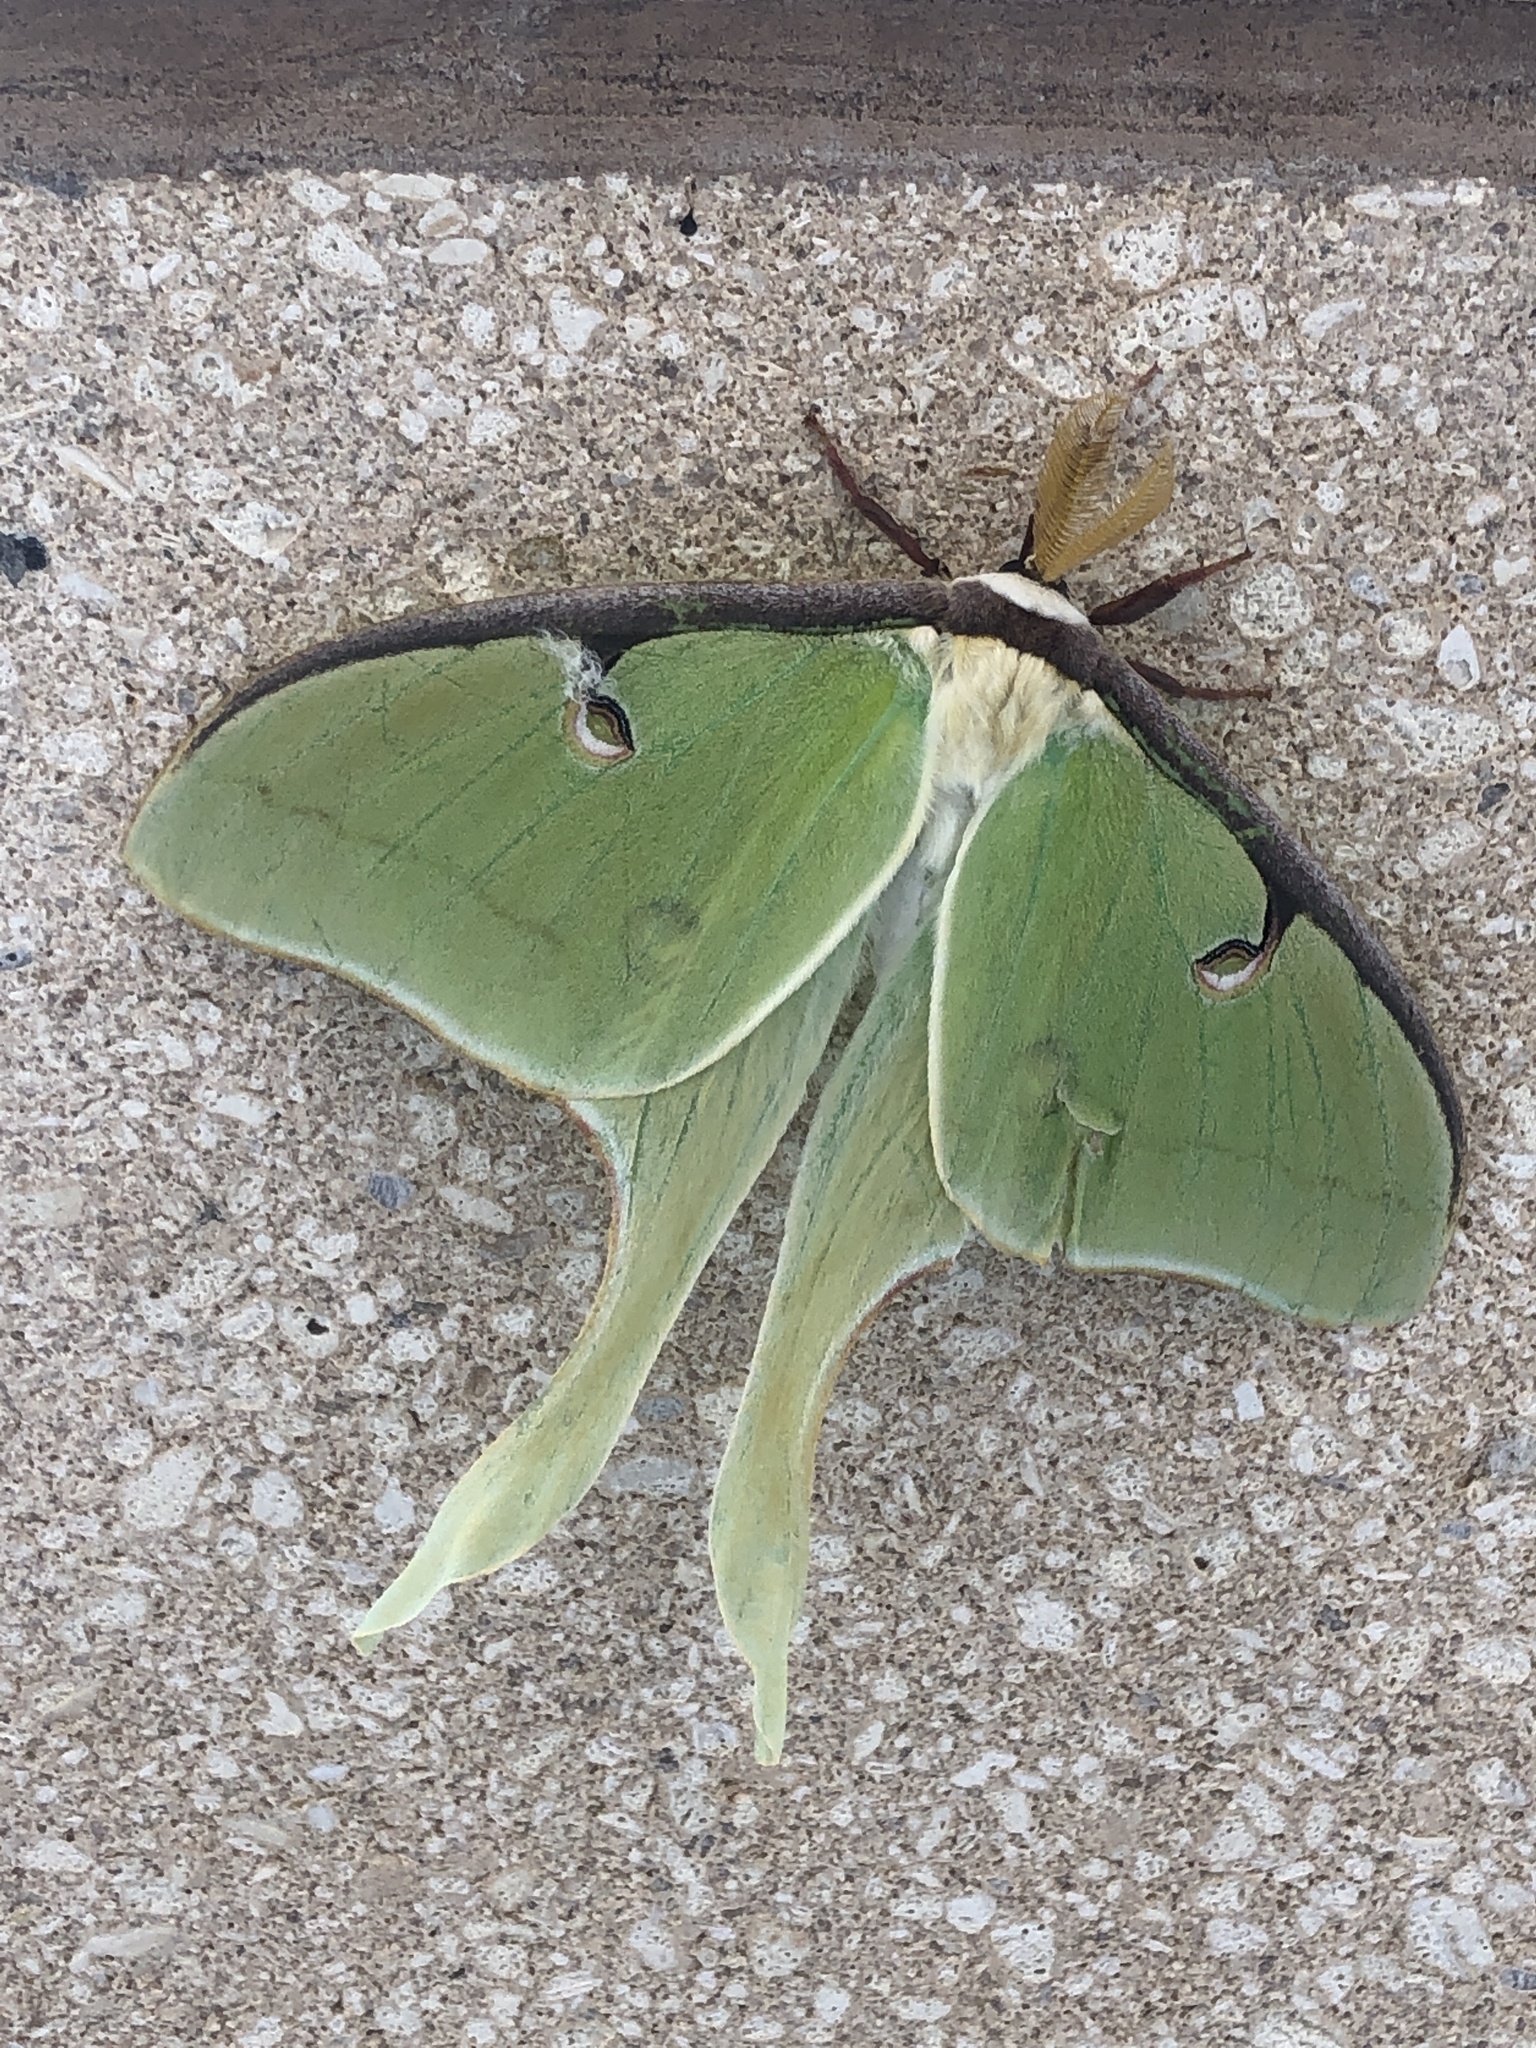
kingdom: Animalia
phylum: Arthropoda
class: Insecta
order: Lepidoptera
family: Saturniidae
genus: Actias
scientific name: Actias luna
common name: Luna moth
